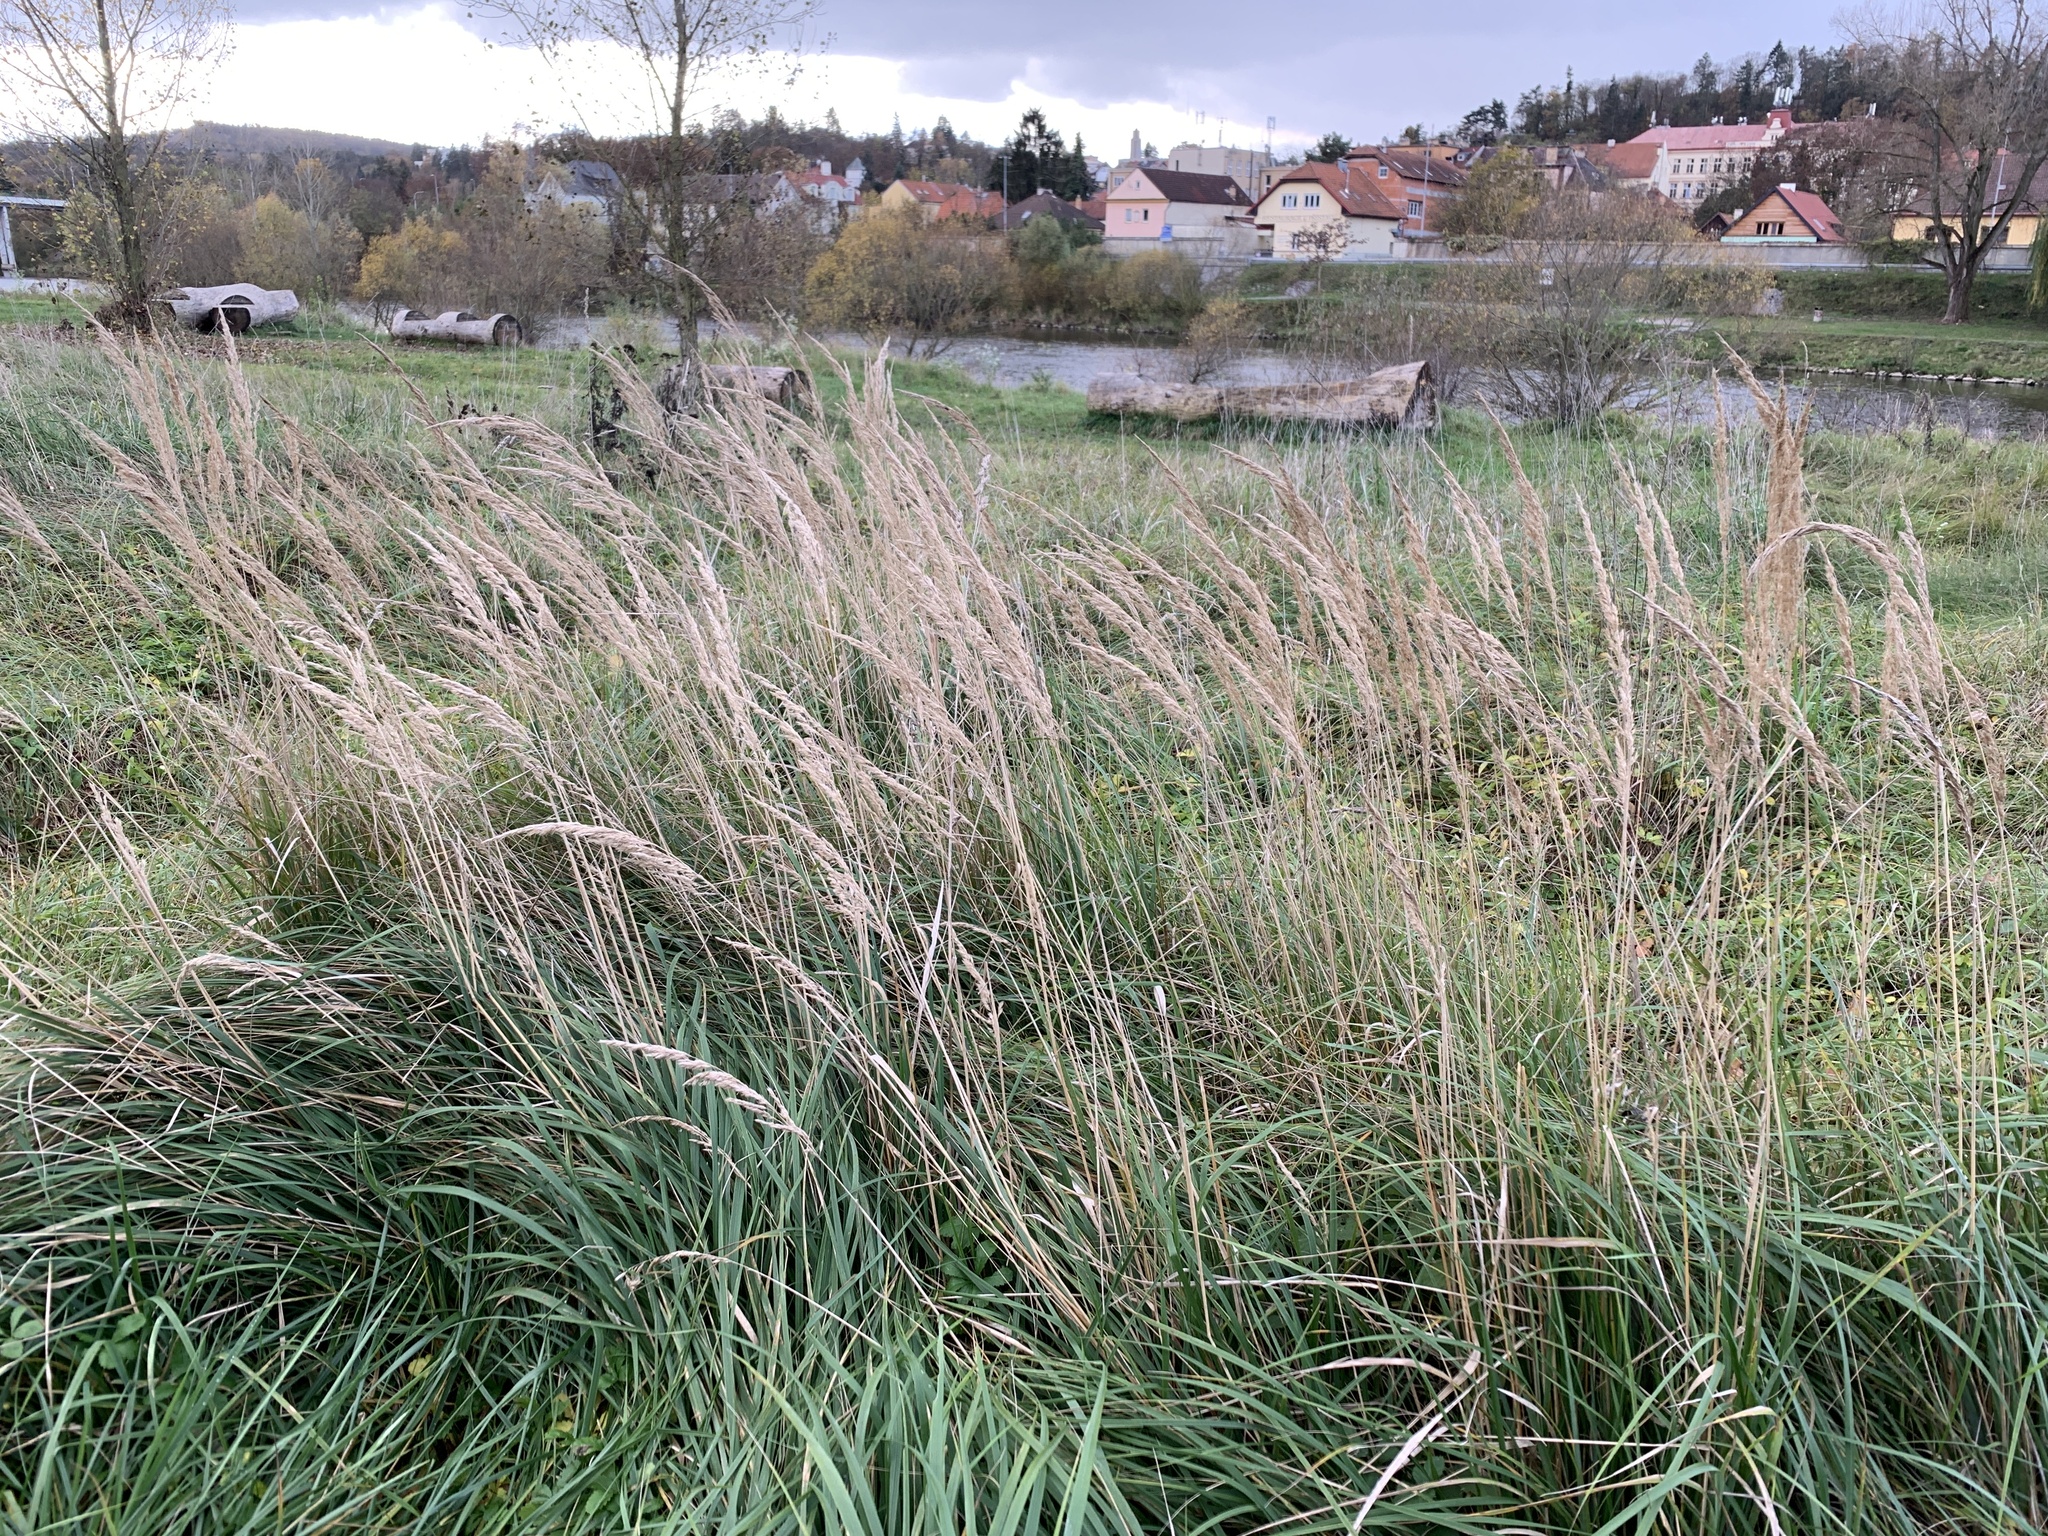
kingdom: Plantae
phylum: Tracheophyta
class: Liliopsida
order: Poales
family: Poaceae
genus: Calamagrostis
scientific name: Calamagrostis epigejos
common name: Wood small-reed
